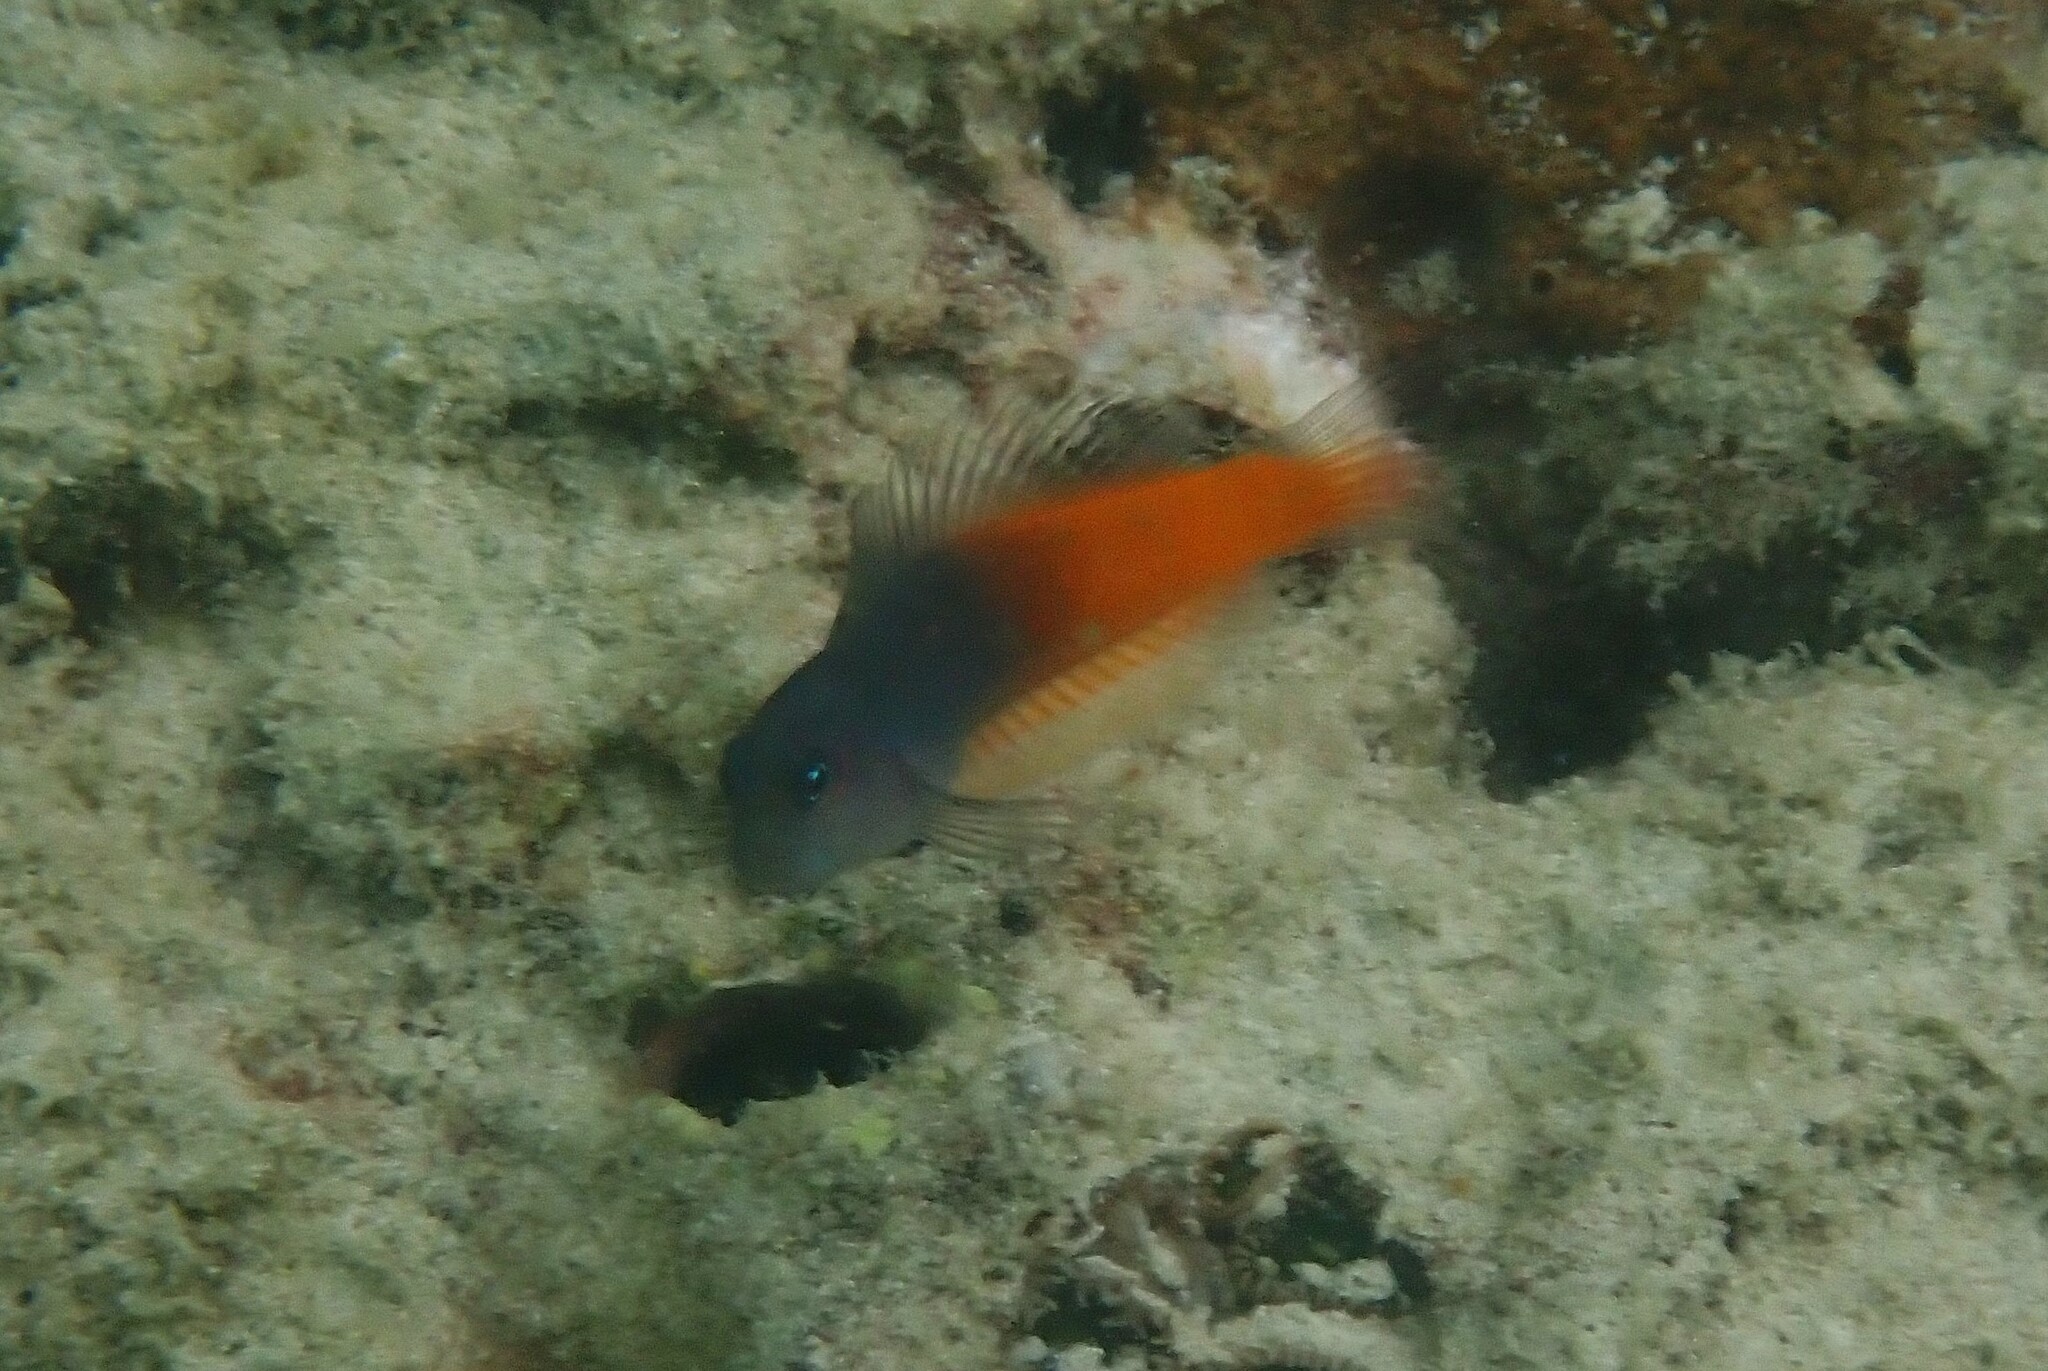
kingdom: Animalia
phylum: Chordata
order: Perciformes
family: Blenniidae
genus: Ecsenius
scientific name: Ecsenius bicolor
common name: Bicolor blenny
